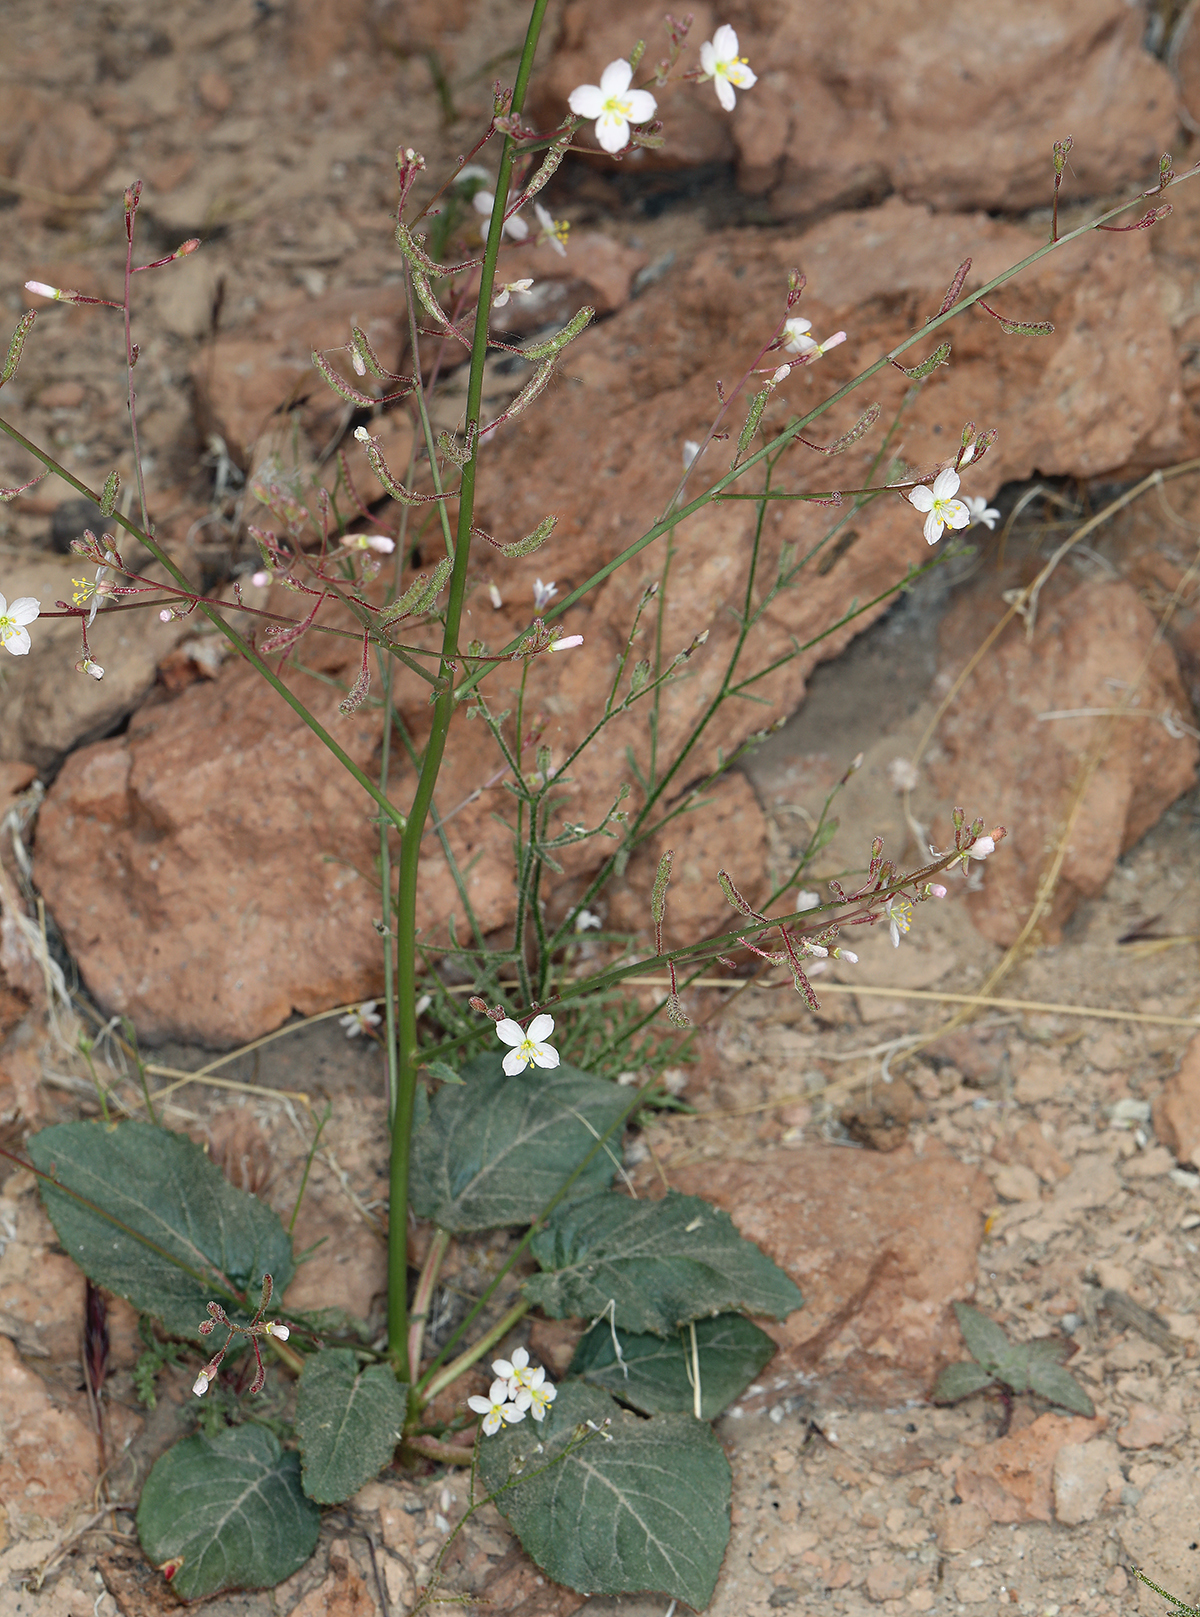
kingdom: Plantae
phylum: Tracheophyta
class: Magnoliopsida
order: Myrtales
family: Onagraceae
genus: Chylismia
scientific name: Chylismia heterochroma
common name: Shockley's evening primrose
